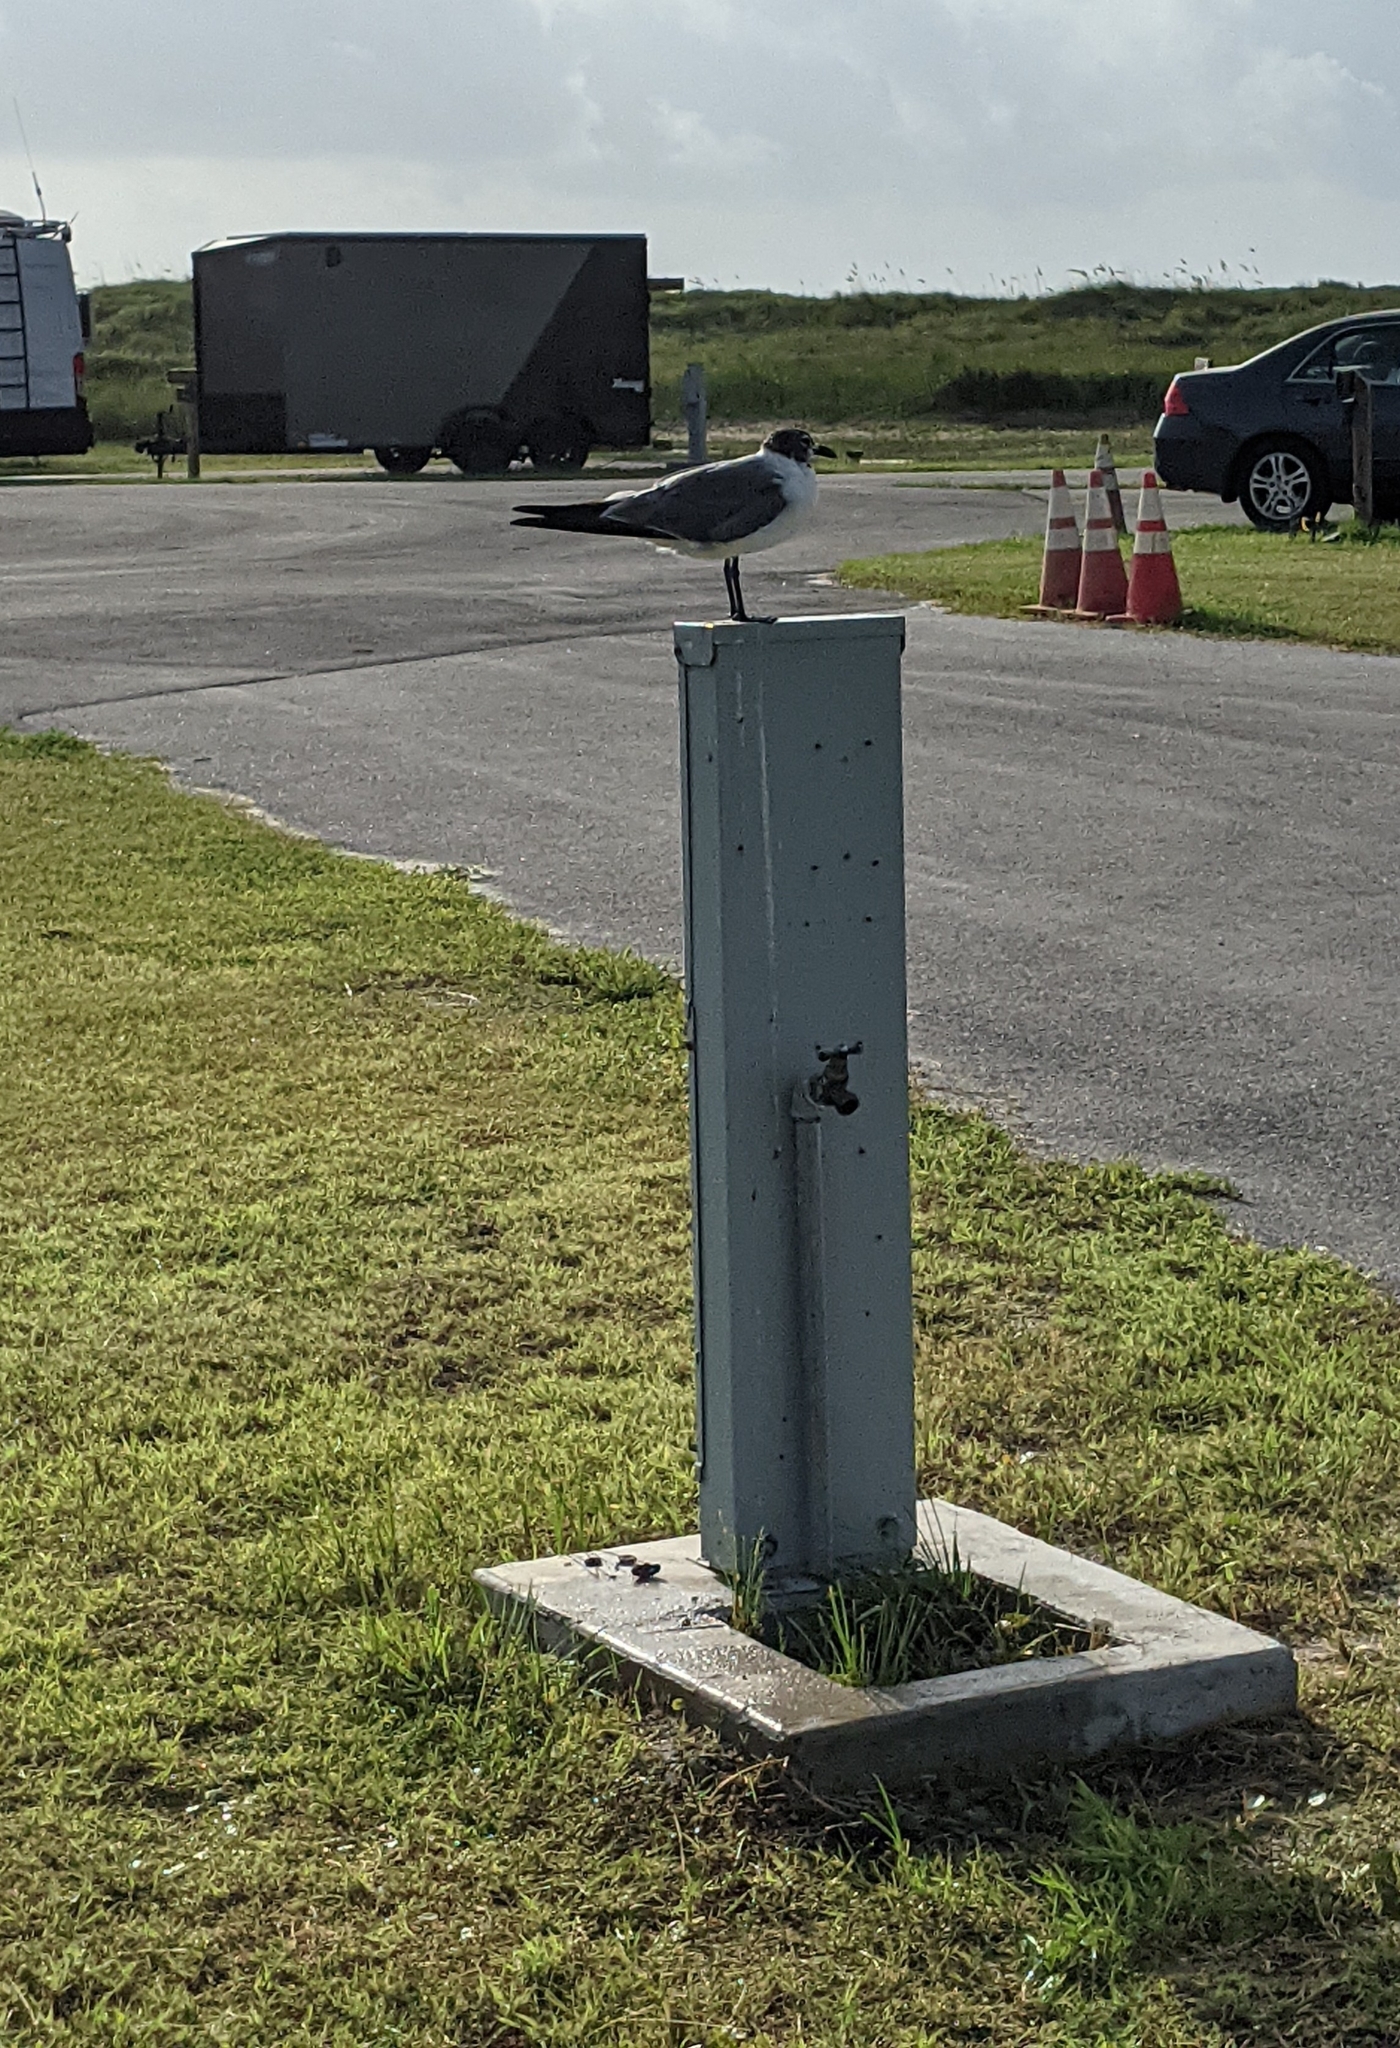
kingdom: Animalia
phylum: Chordata
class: Aves
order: Charadriiformes
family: Laridae
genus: Leucophaeus
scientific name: Leucophaeus atricilla
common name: Laughing gull
